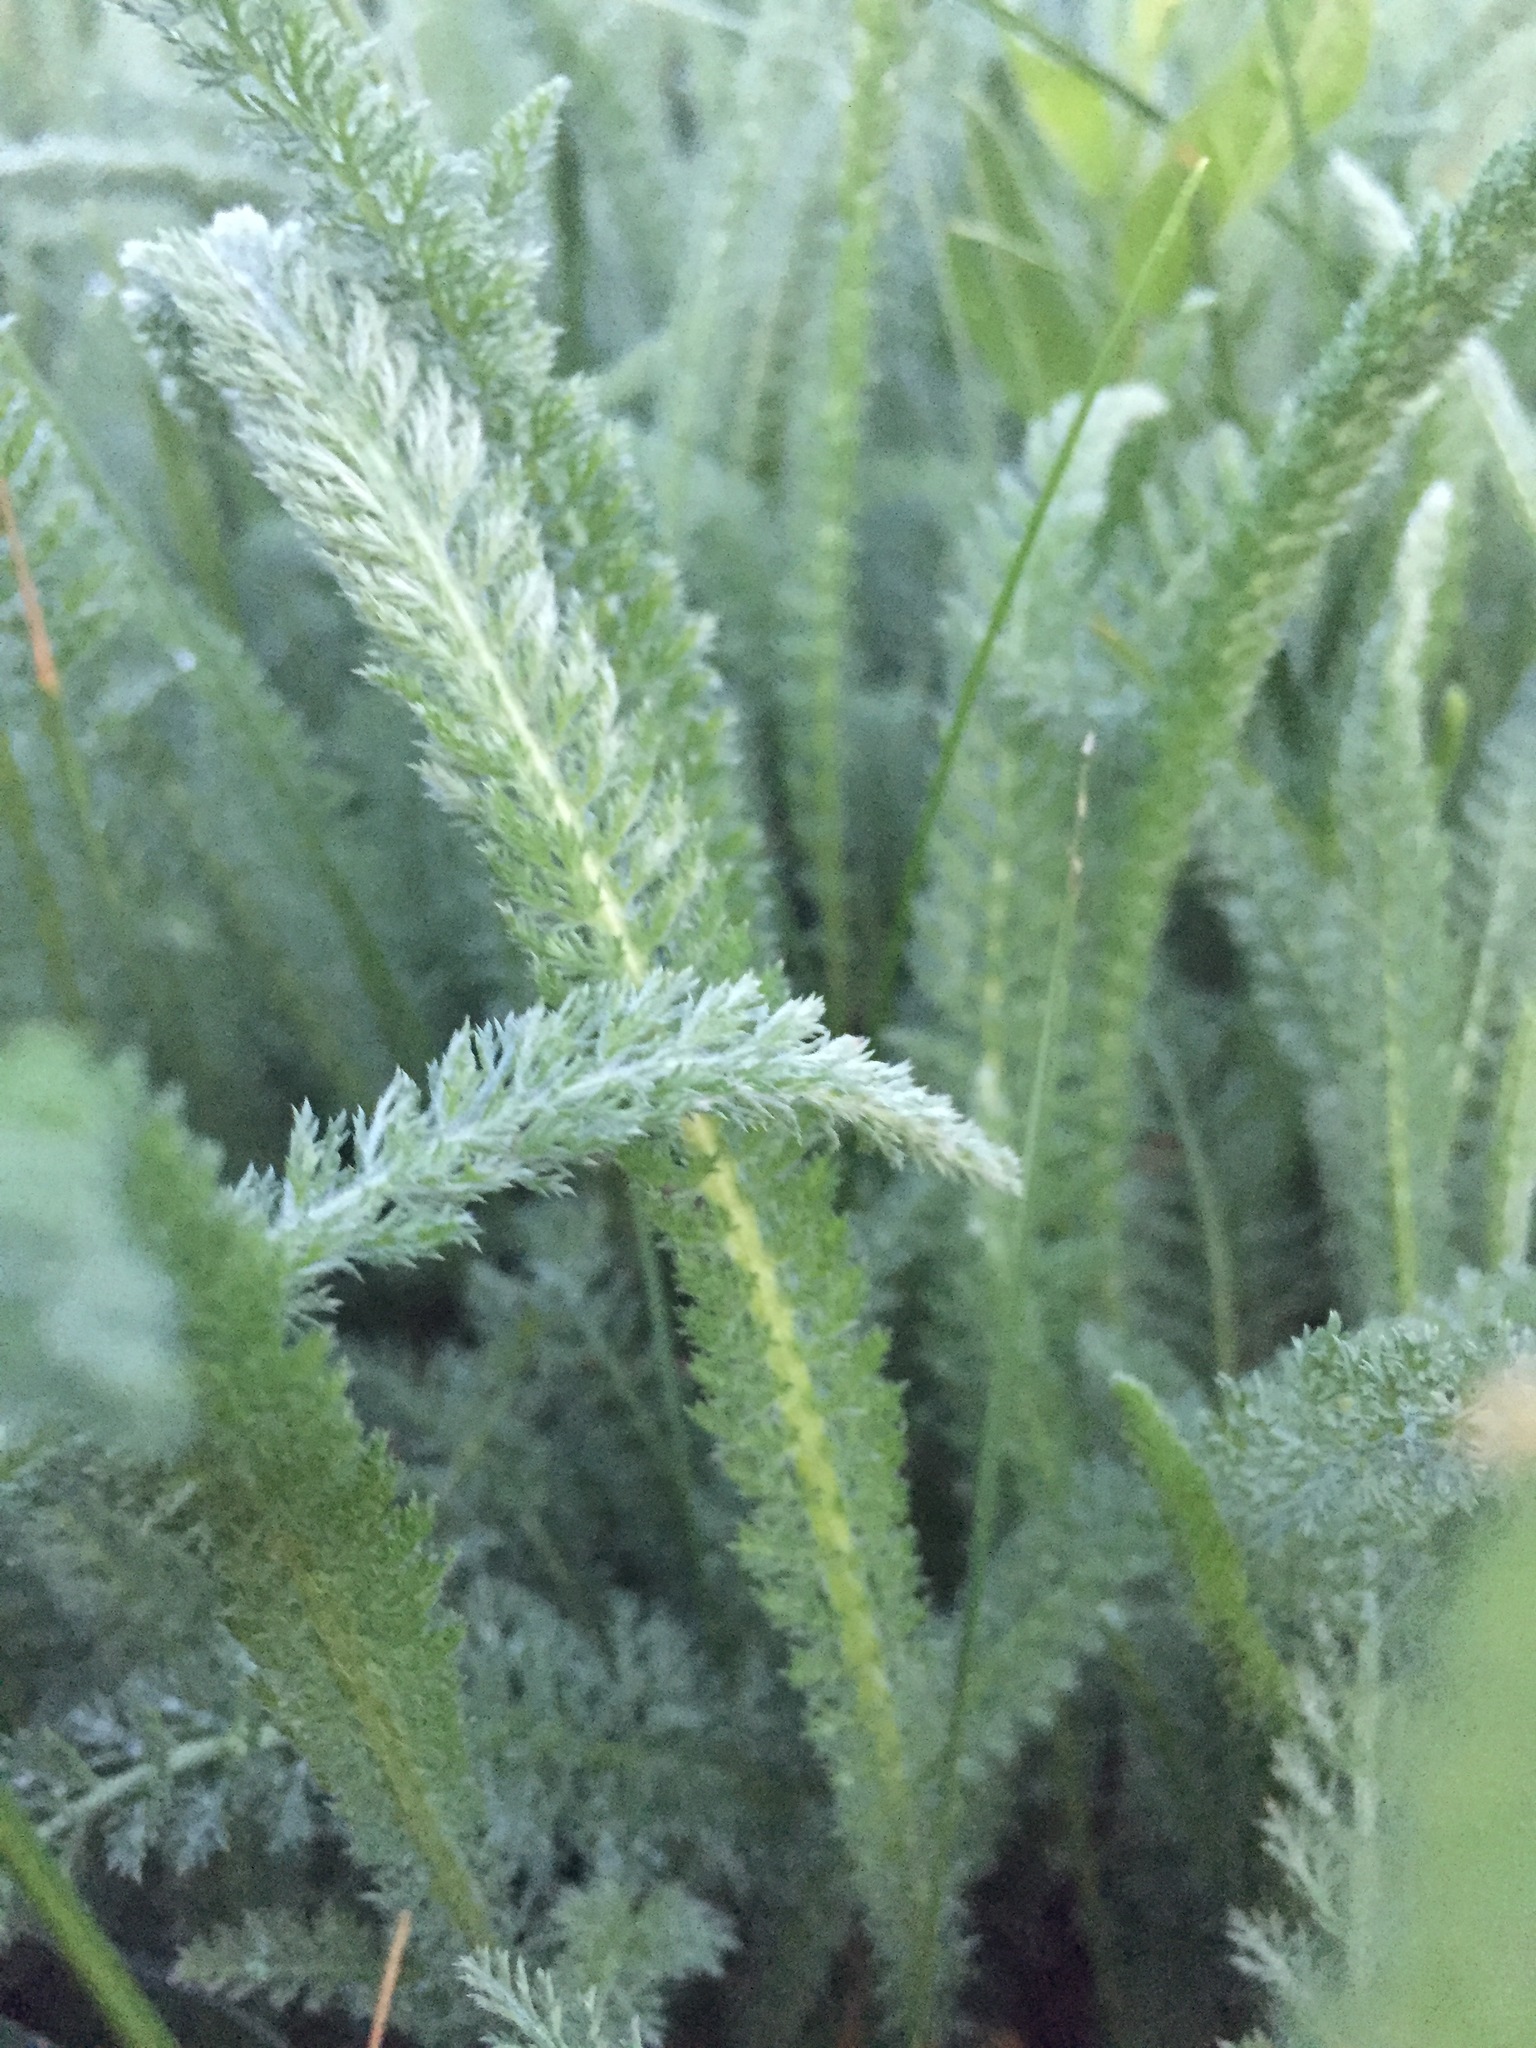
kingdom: Plantae
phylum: Tracheophyta
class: Magnoliopsida
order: Asterales
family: Asteraceae
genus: Achillea
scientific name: Achillea millefolium
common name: Yarrow
